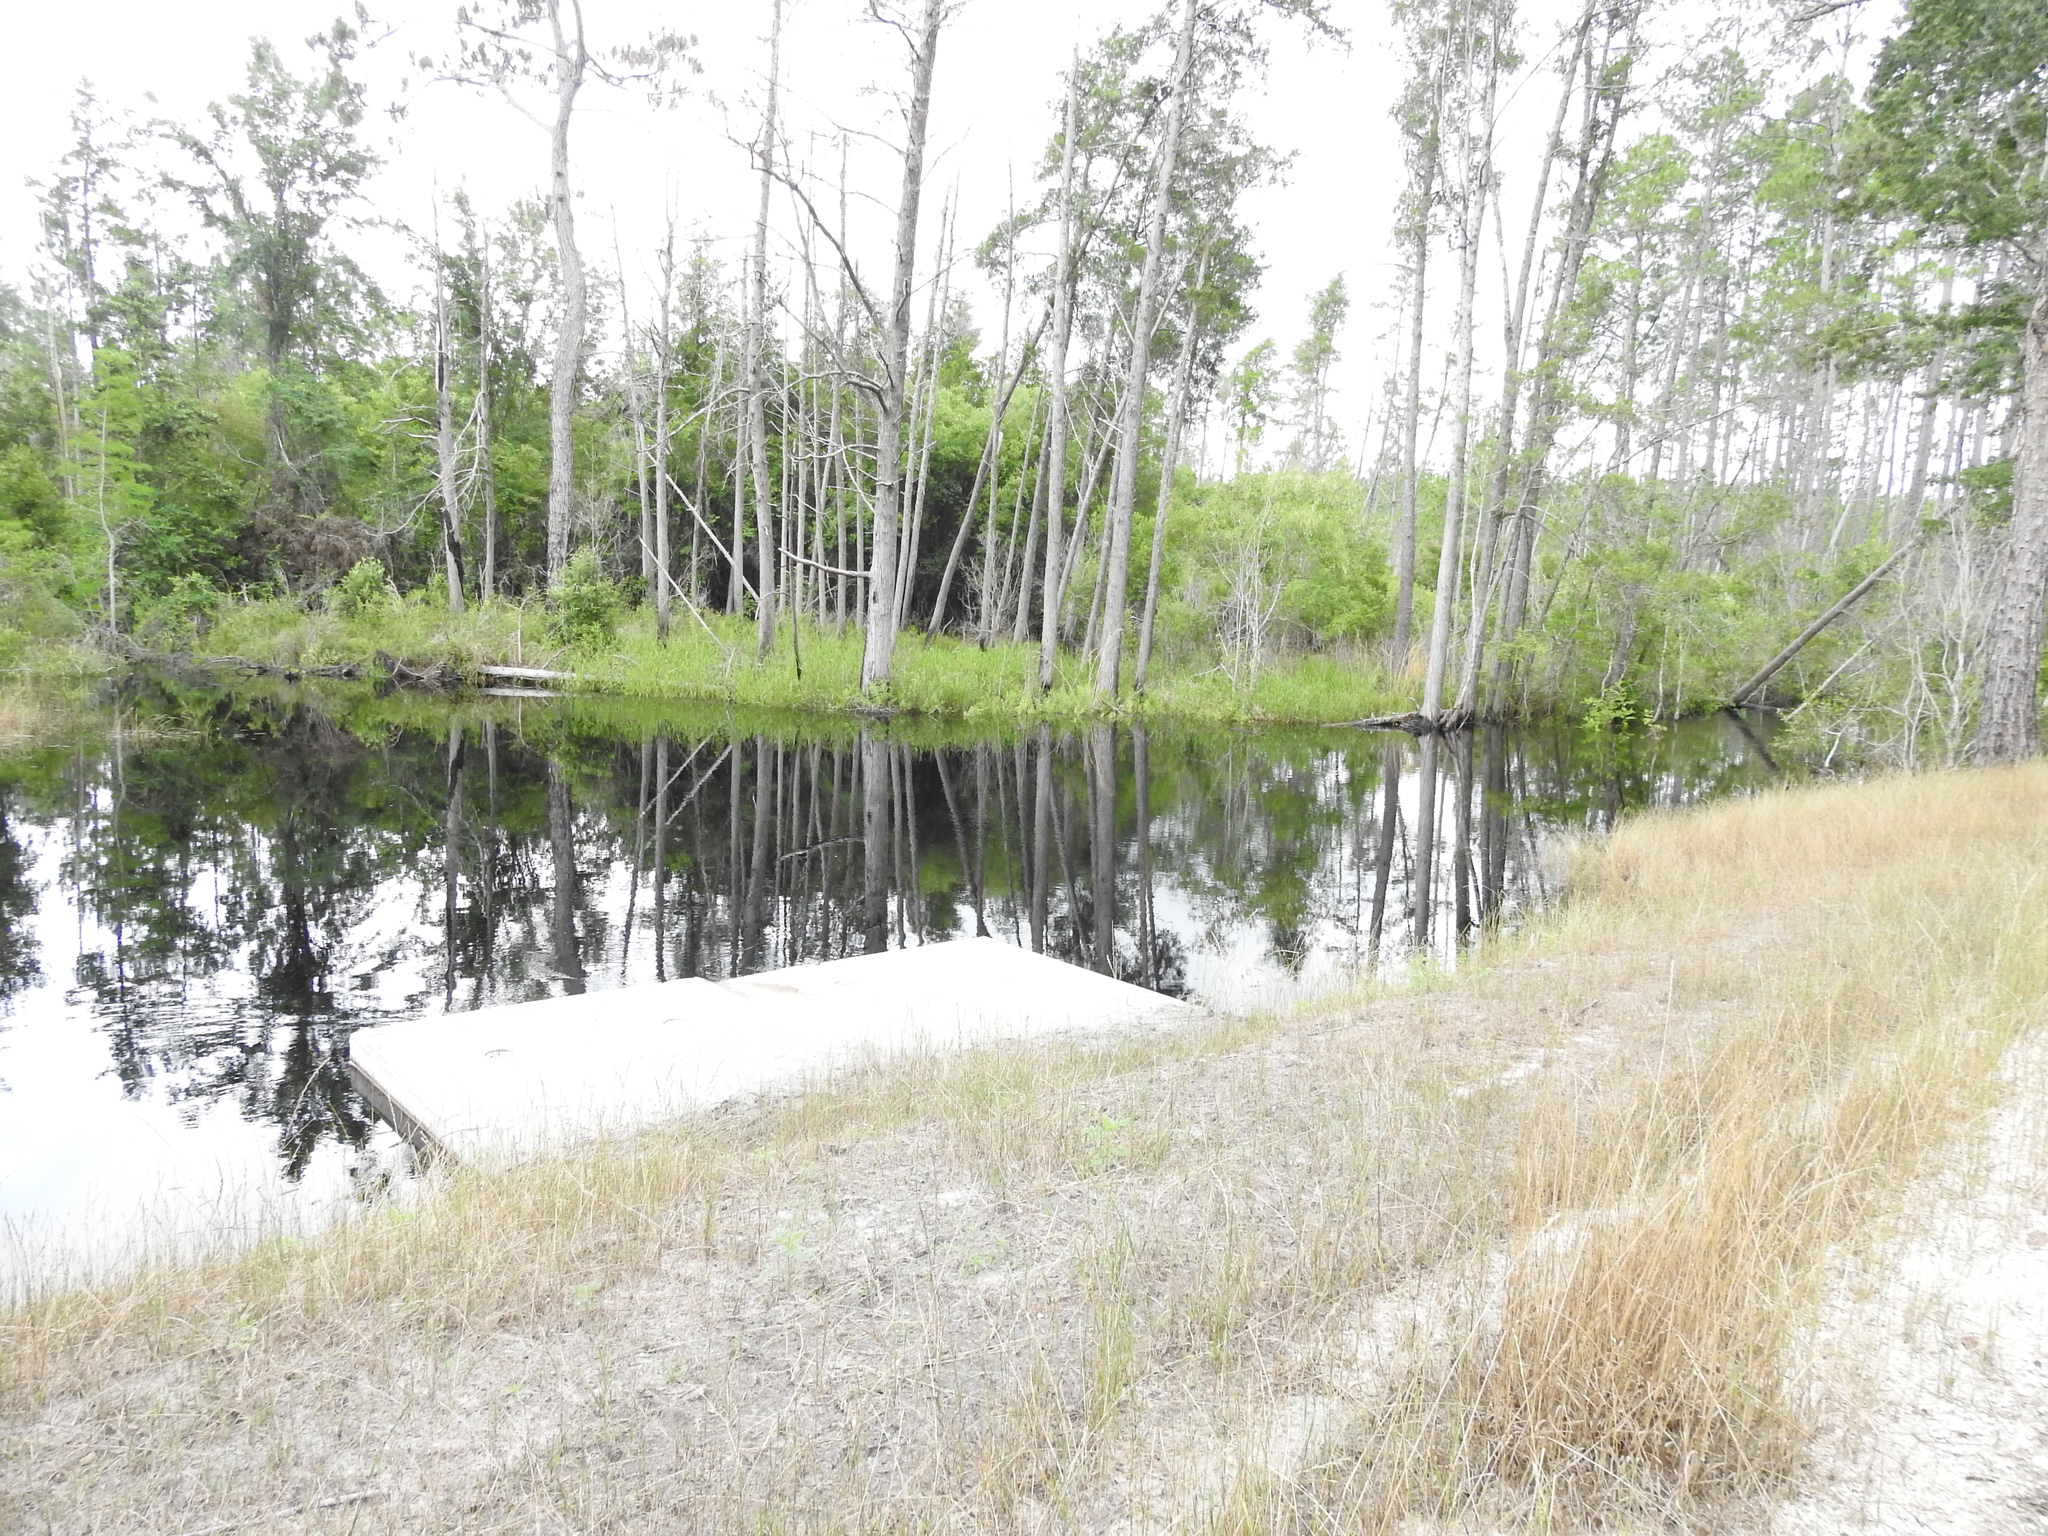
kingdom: Animalia
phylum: Arthropoda
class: Insecta
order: Odonata
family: Gomphidae
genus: Progomphus
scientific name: Progomphus bellei
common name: Belle's sanddragon
